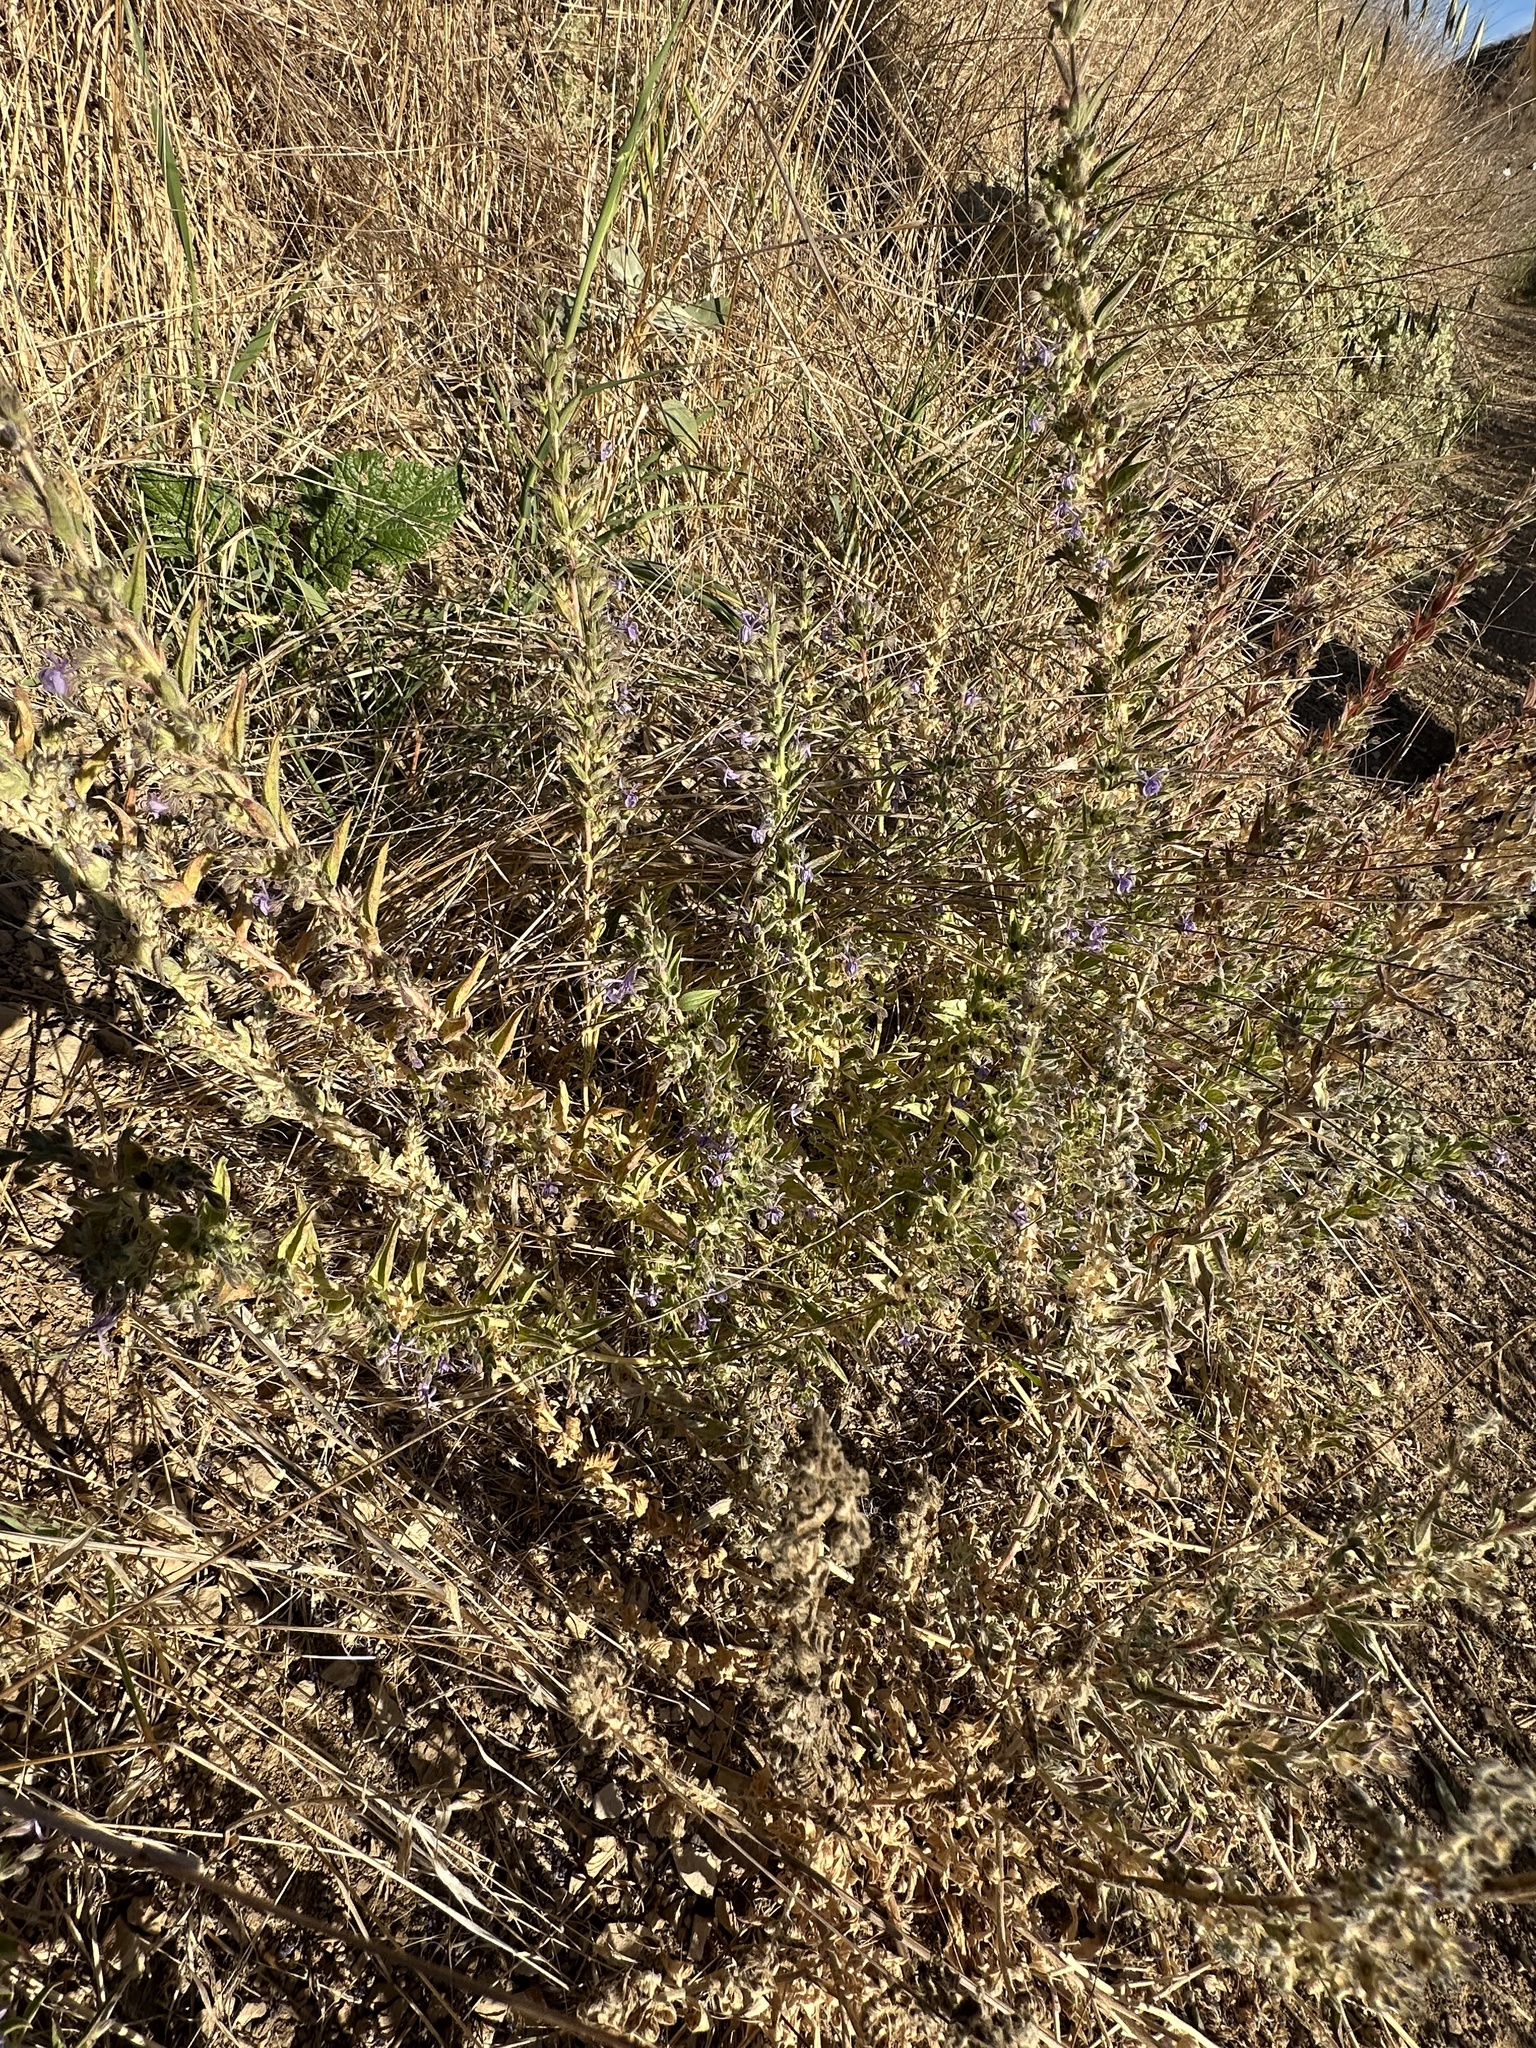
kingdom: Plantae
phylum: Tracheophyta
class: Magnoliopsida
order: Lamiales
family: Lamiaceae
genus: Trichostema
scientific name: Trichostema lanceolatum
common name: Vinegar-weed
